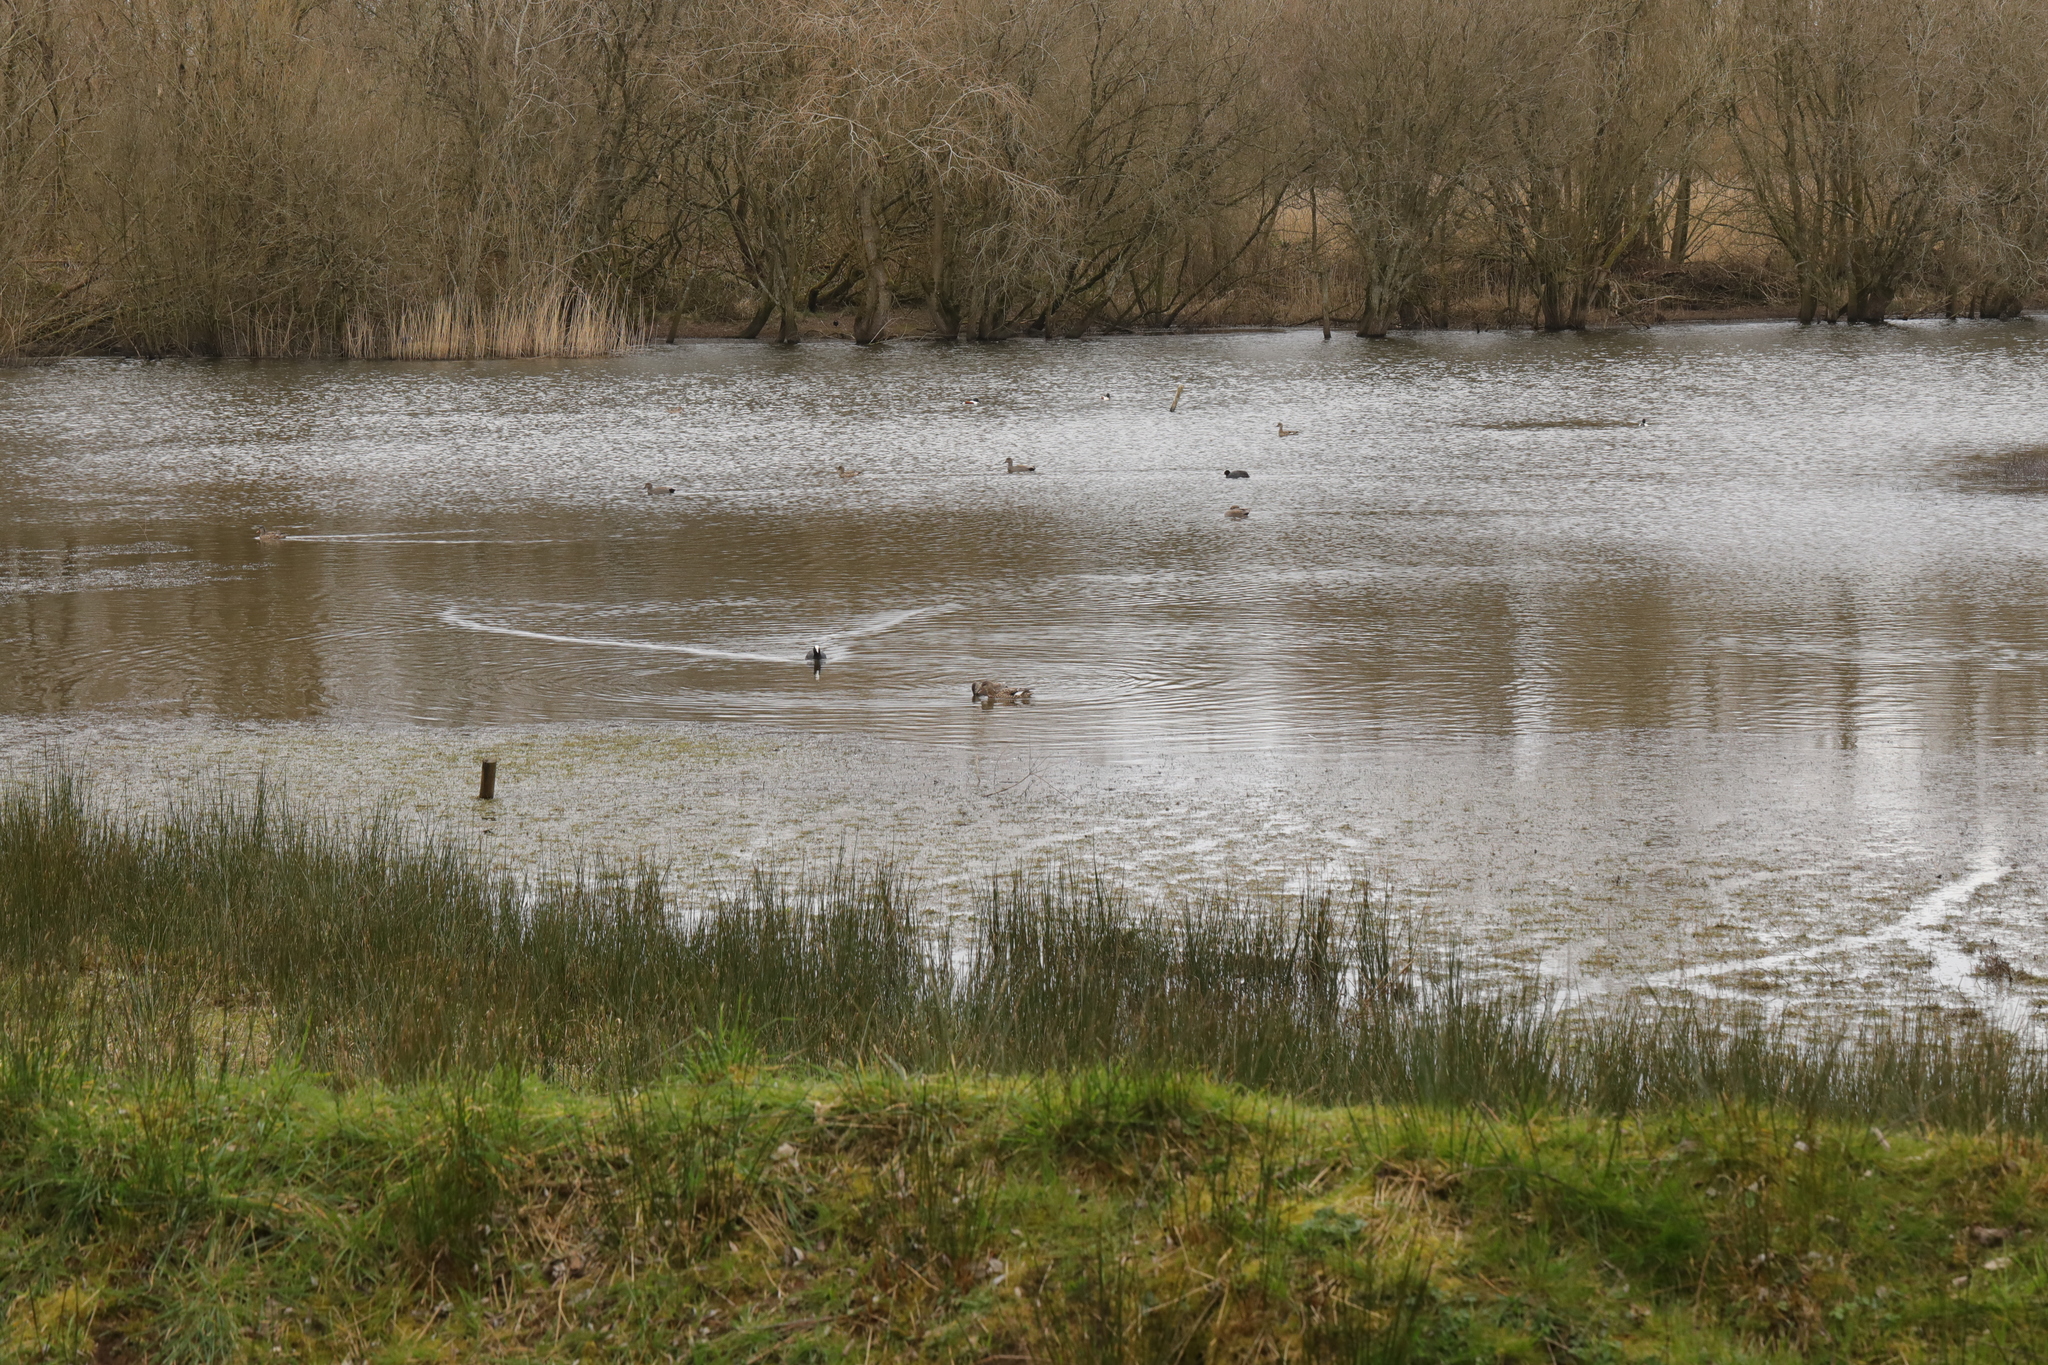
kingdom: Animalia
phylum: Chordata
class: Aves
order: Anseriformes
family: Anatidae
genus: Spatula
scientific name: Spatula clypeata
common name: Northern shoveler
